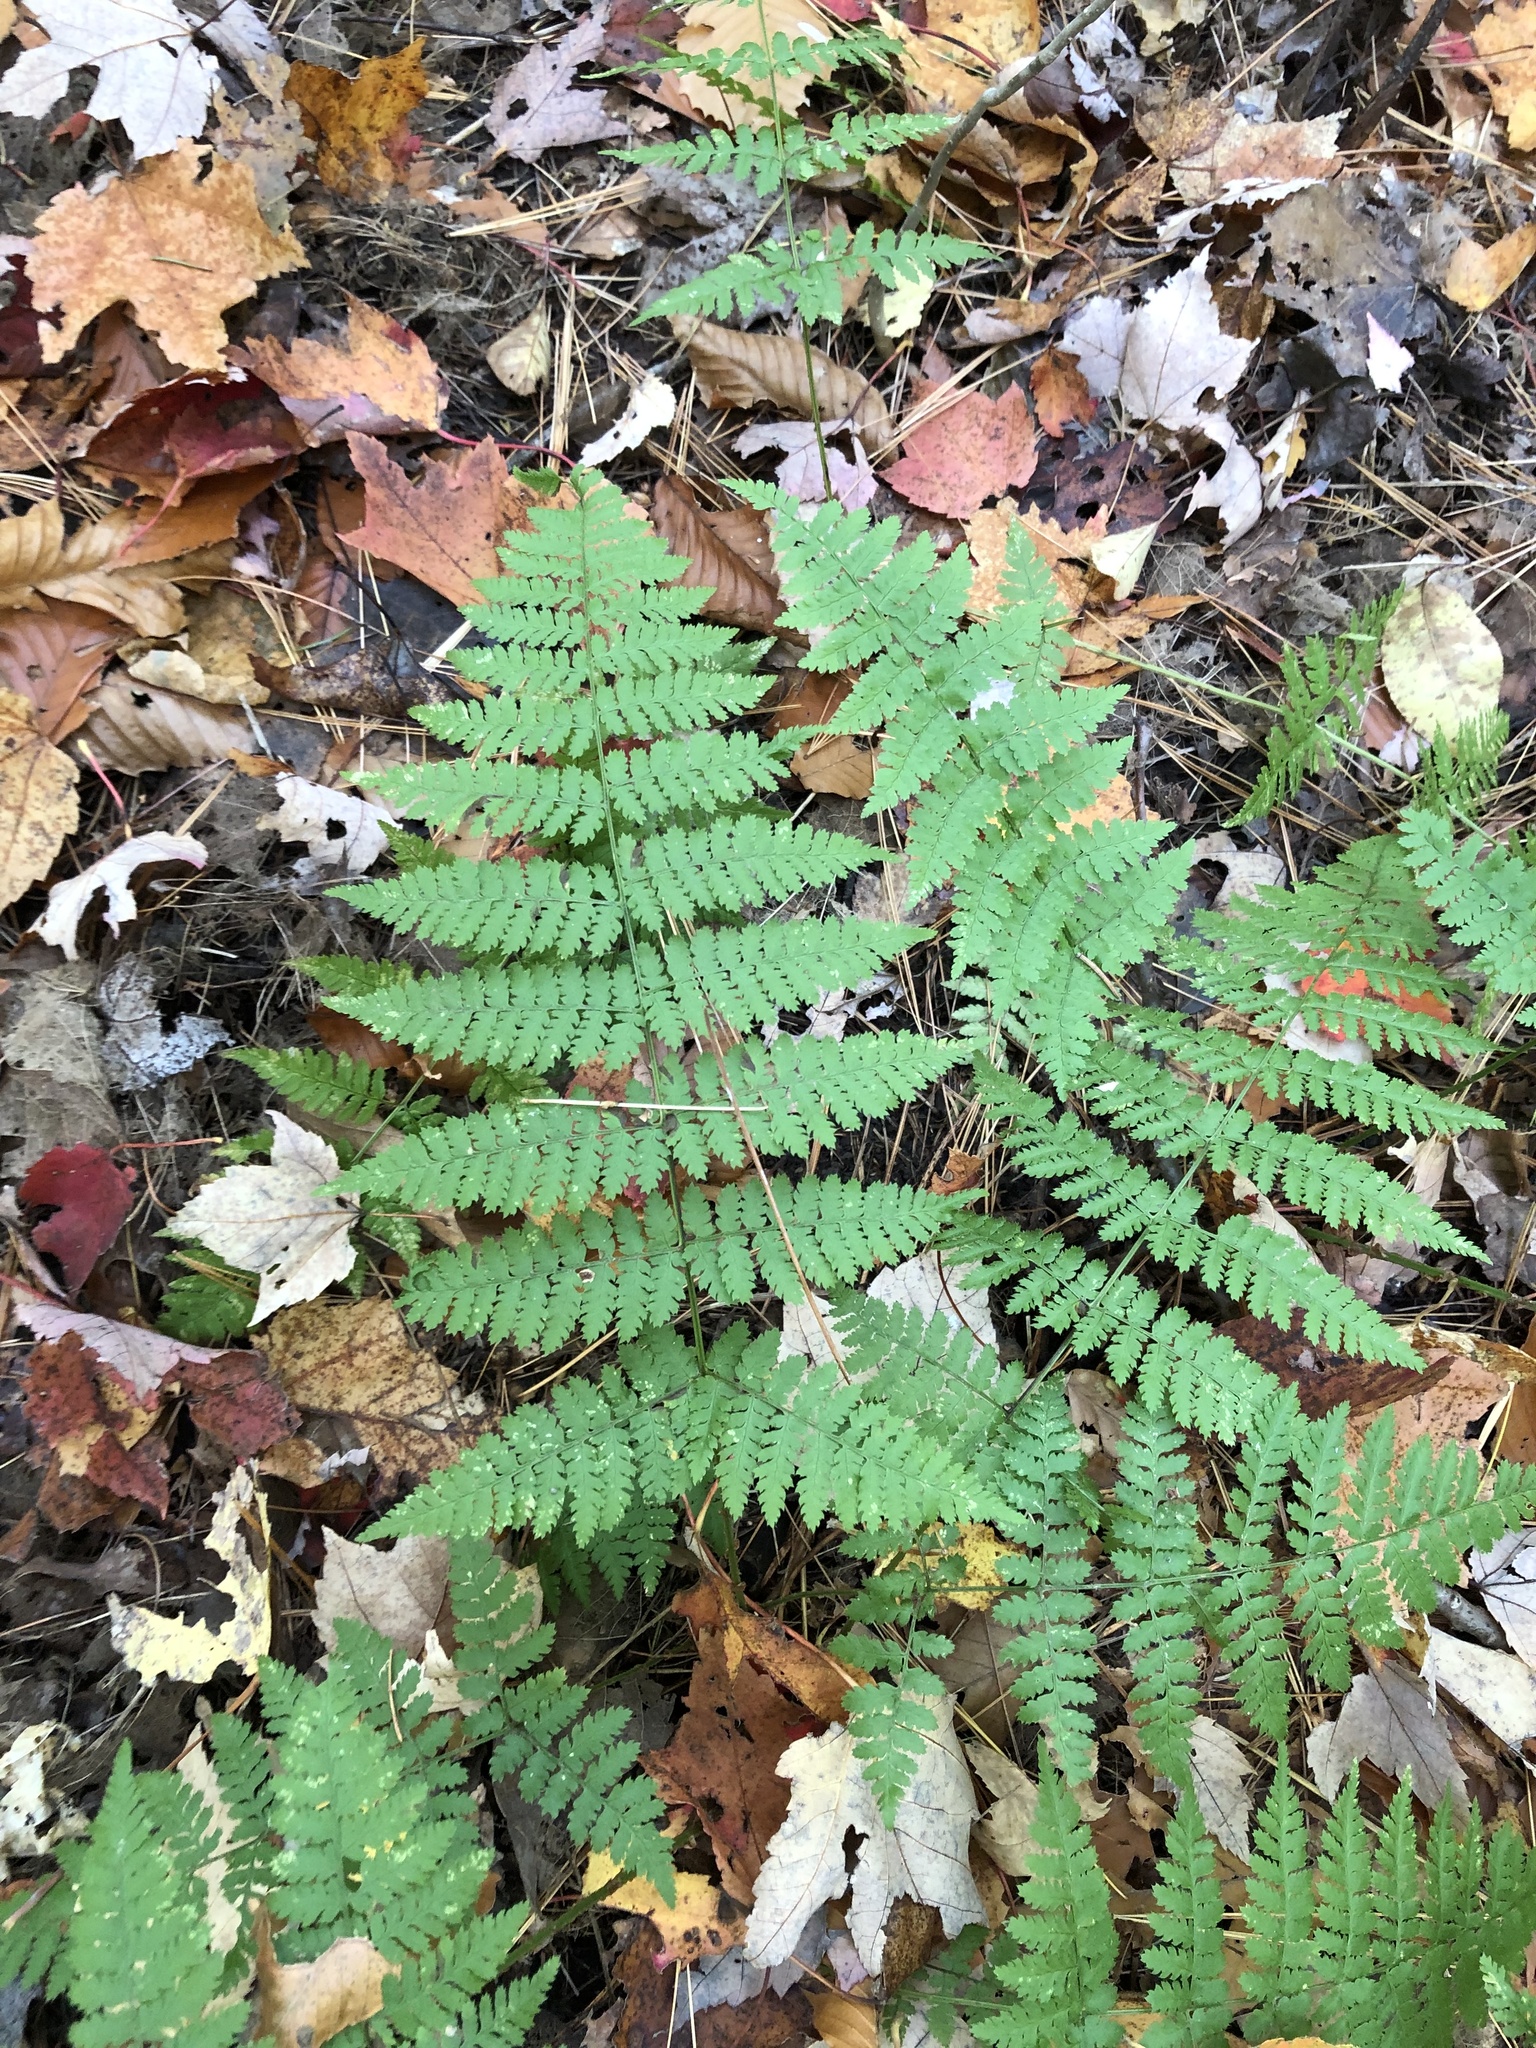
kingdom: Plantae
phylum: Tracheophyta
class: Polypodiopsida
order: Polypodiales
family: Dryopteridaceae
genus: Dryopteris
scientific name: Dryopteris intermedia
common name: Evergreen wood fern
